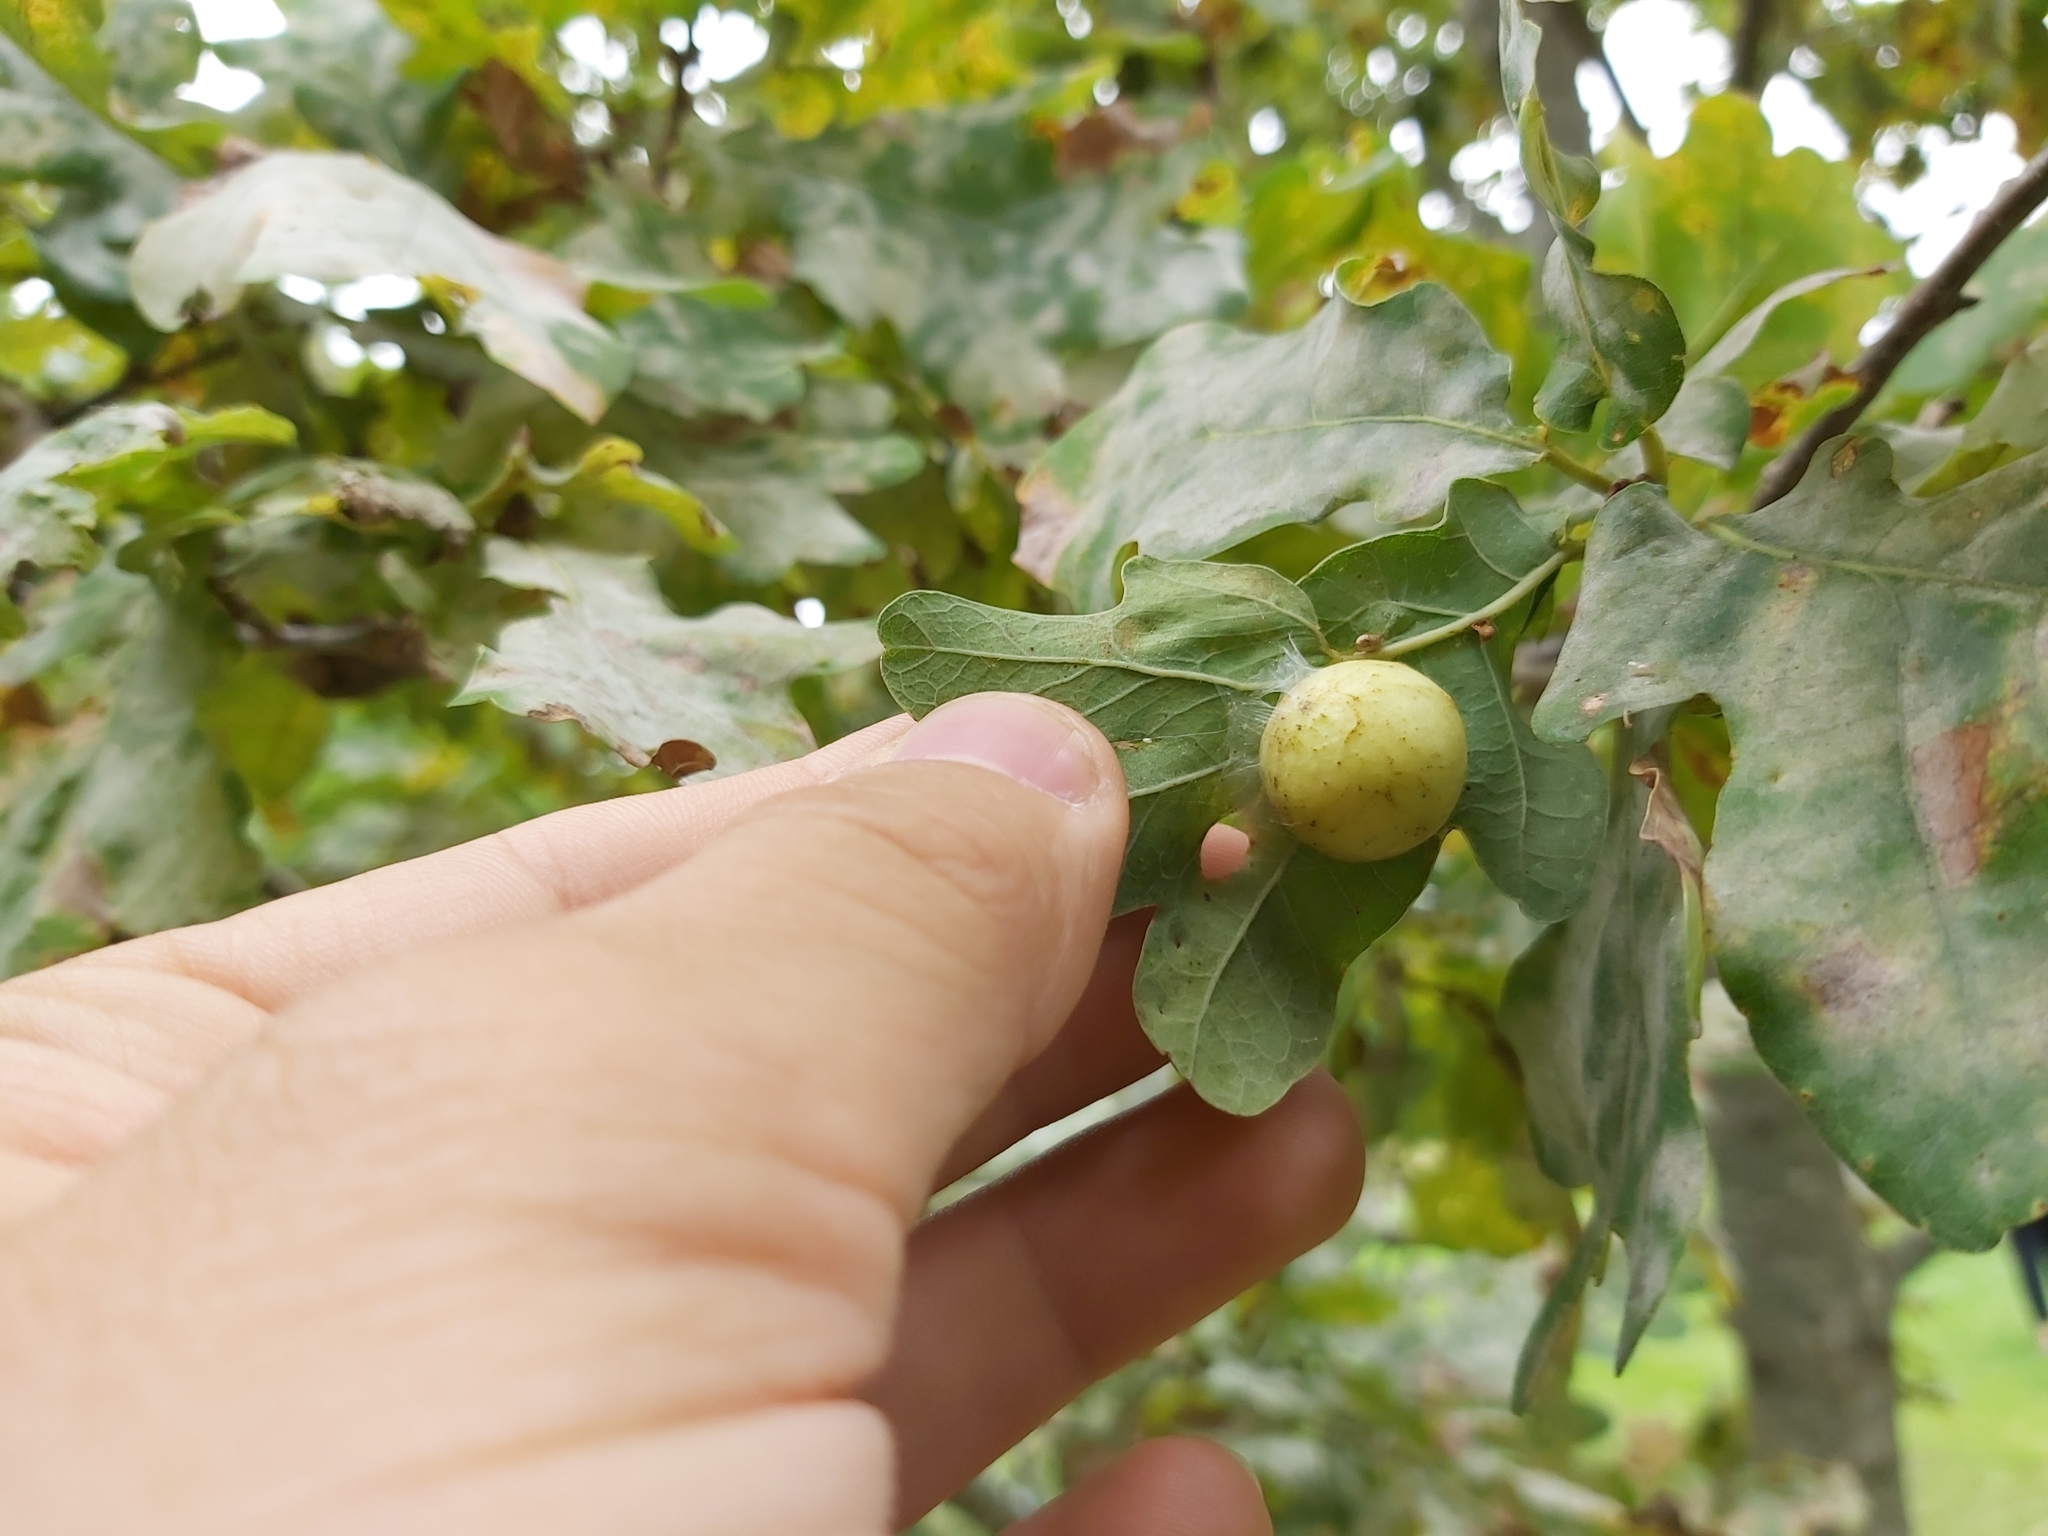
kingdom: Animalia
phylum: Arthropoda
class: Insecta
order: Hymenoptera
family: Cynipidae
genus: Cynips
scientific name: Cynips quercusfolii
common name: Cherry gall
